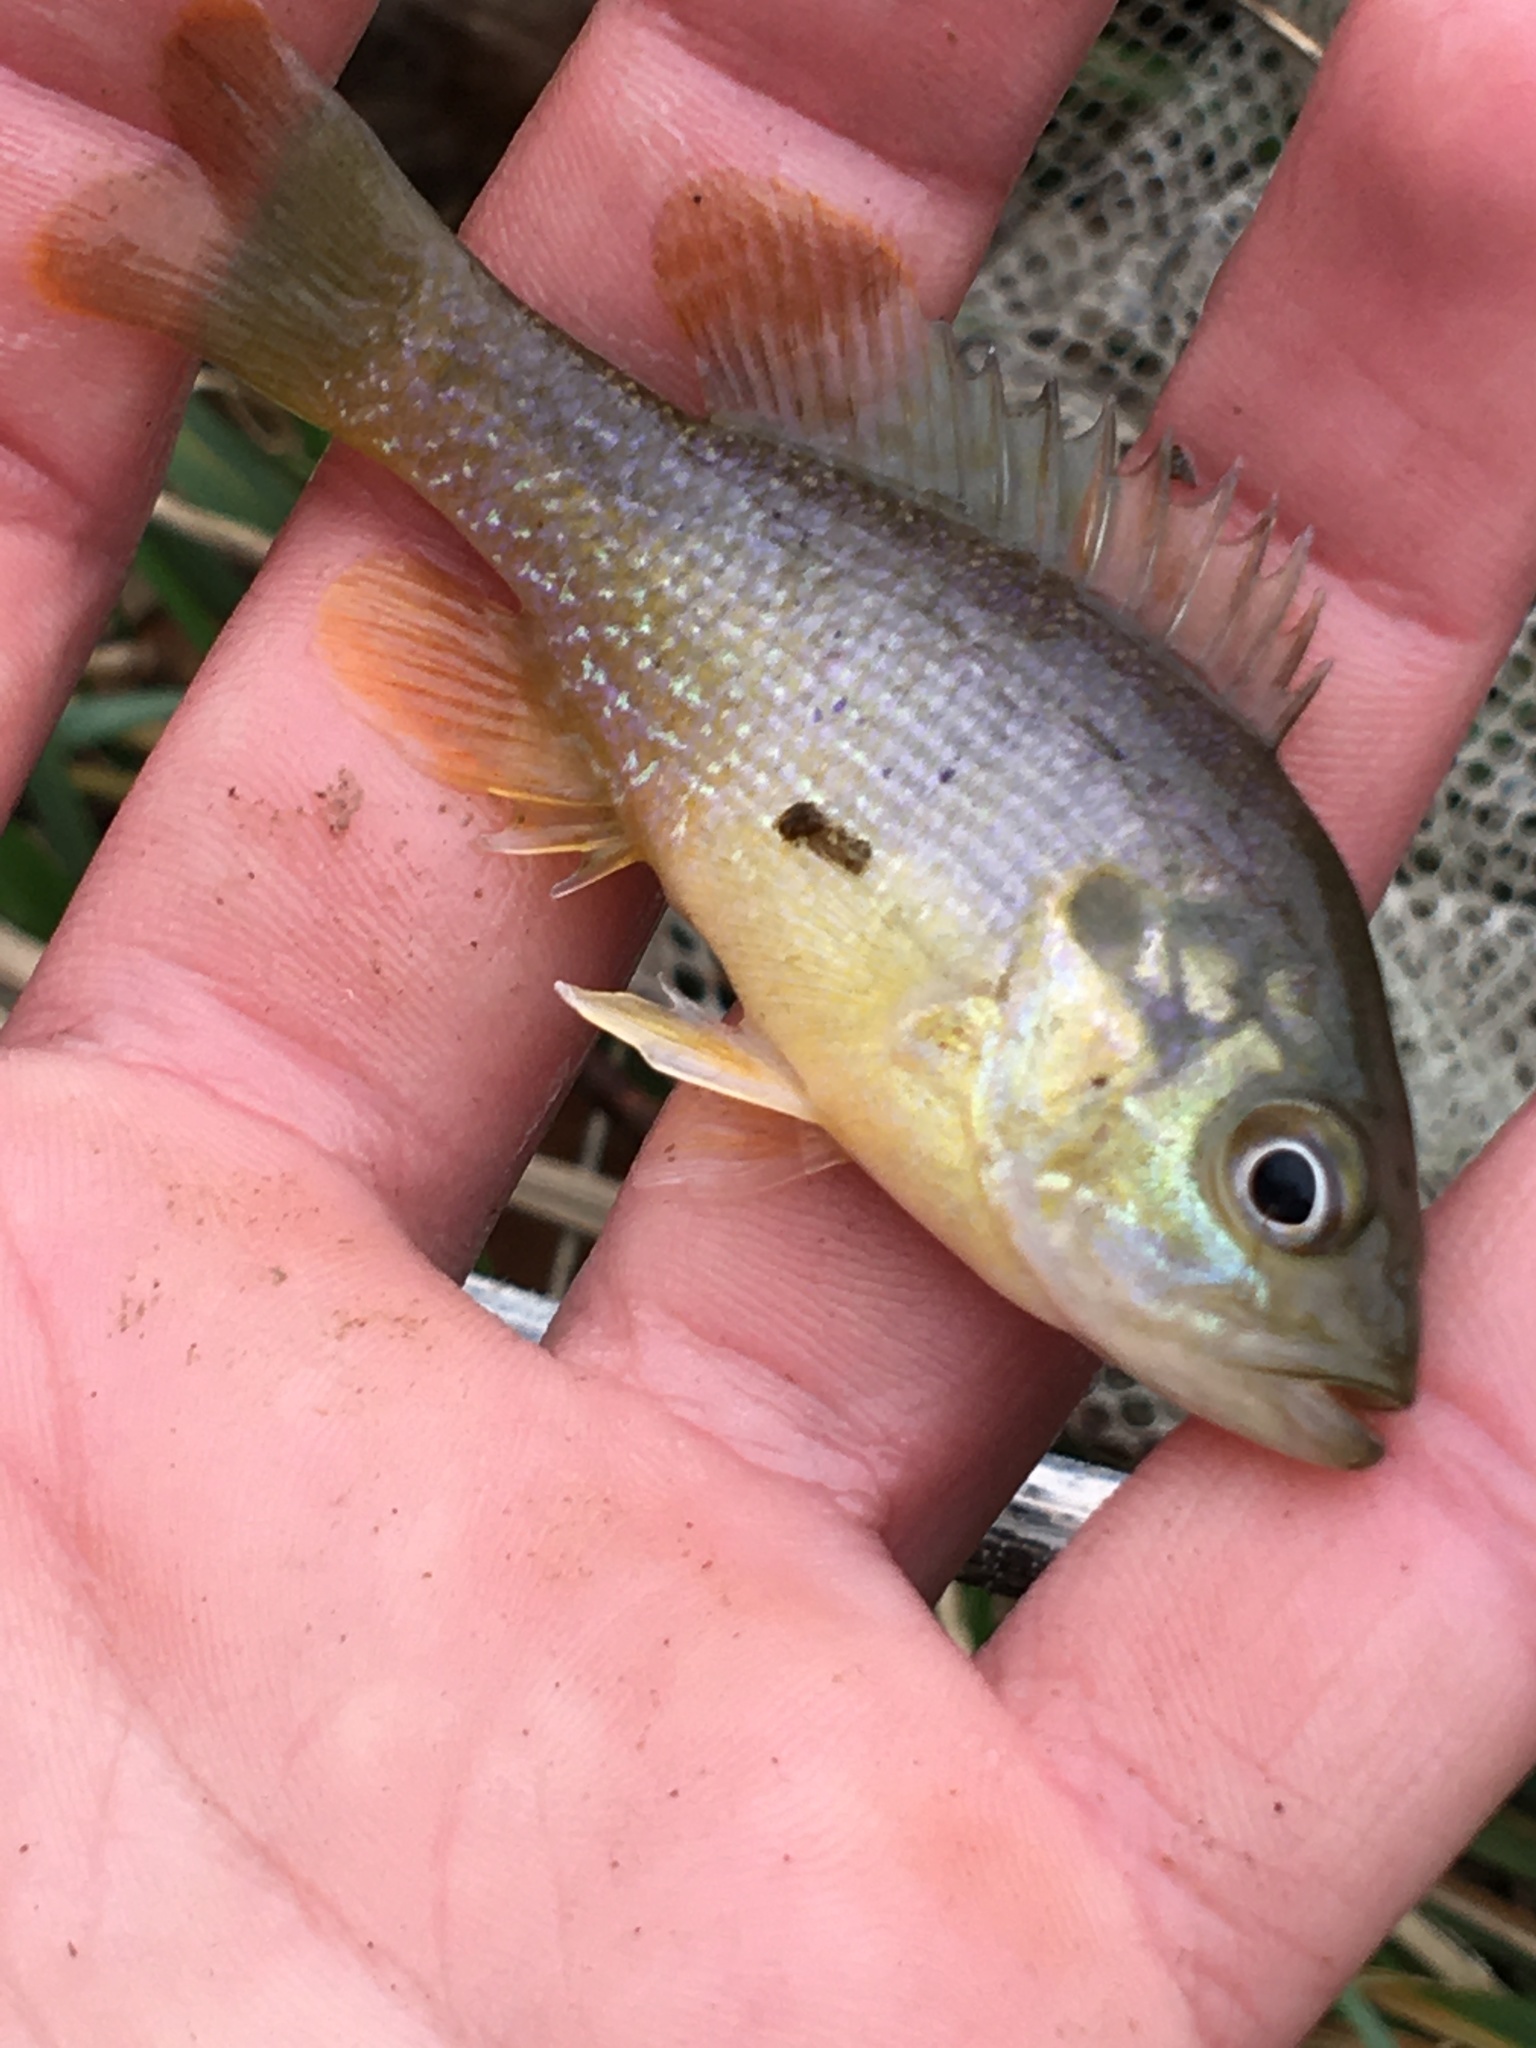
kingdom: Animalia
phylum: Chordata
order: Perciformes
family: Centrarchidae
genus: Lepomis
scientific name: Lepomis cyanellus
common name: Green sunfish
